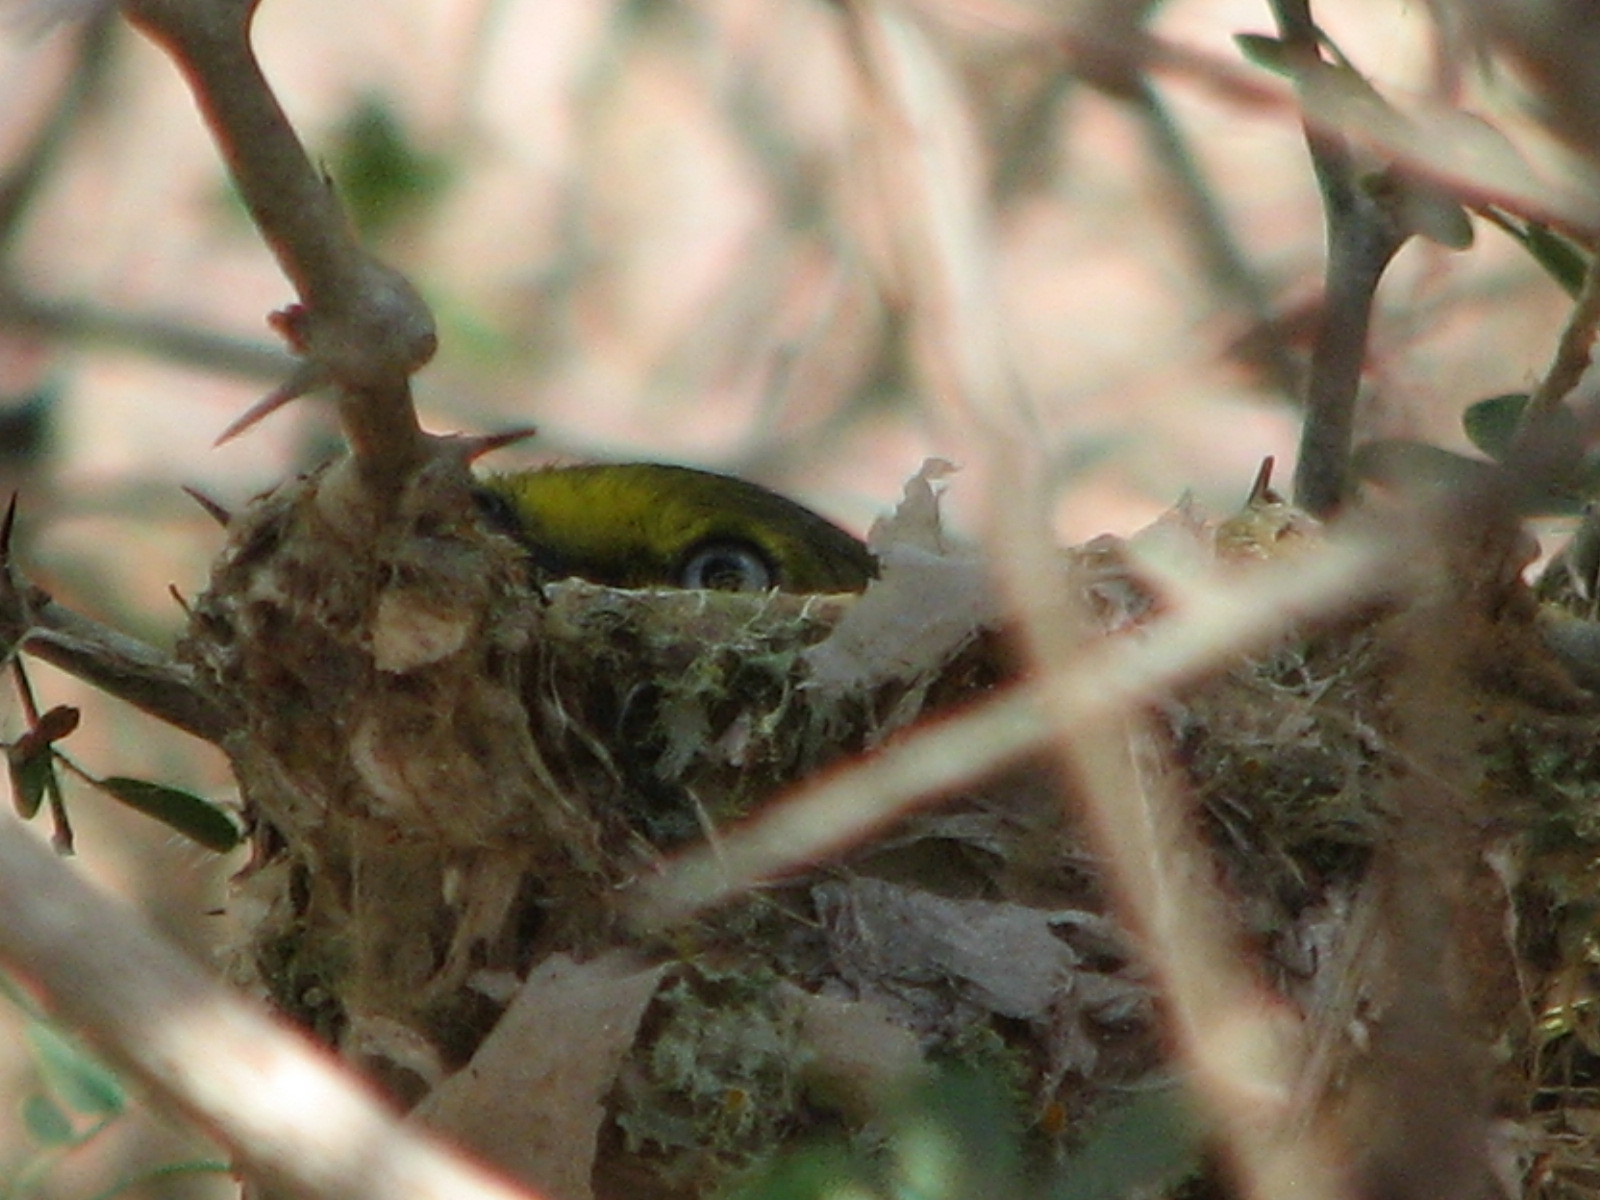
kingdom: Animalia
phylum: Chordata
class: Aves
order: Passeriformes
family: Vireonidae
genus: Vireo
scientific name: Vireo griseus
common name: White-eyed vireo
